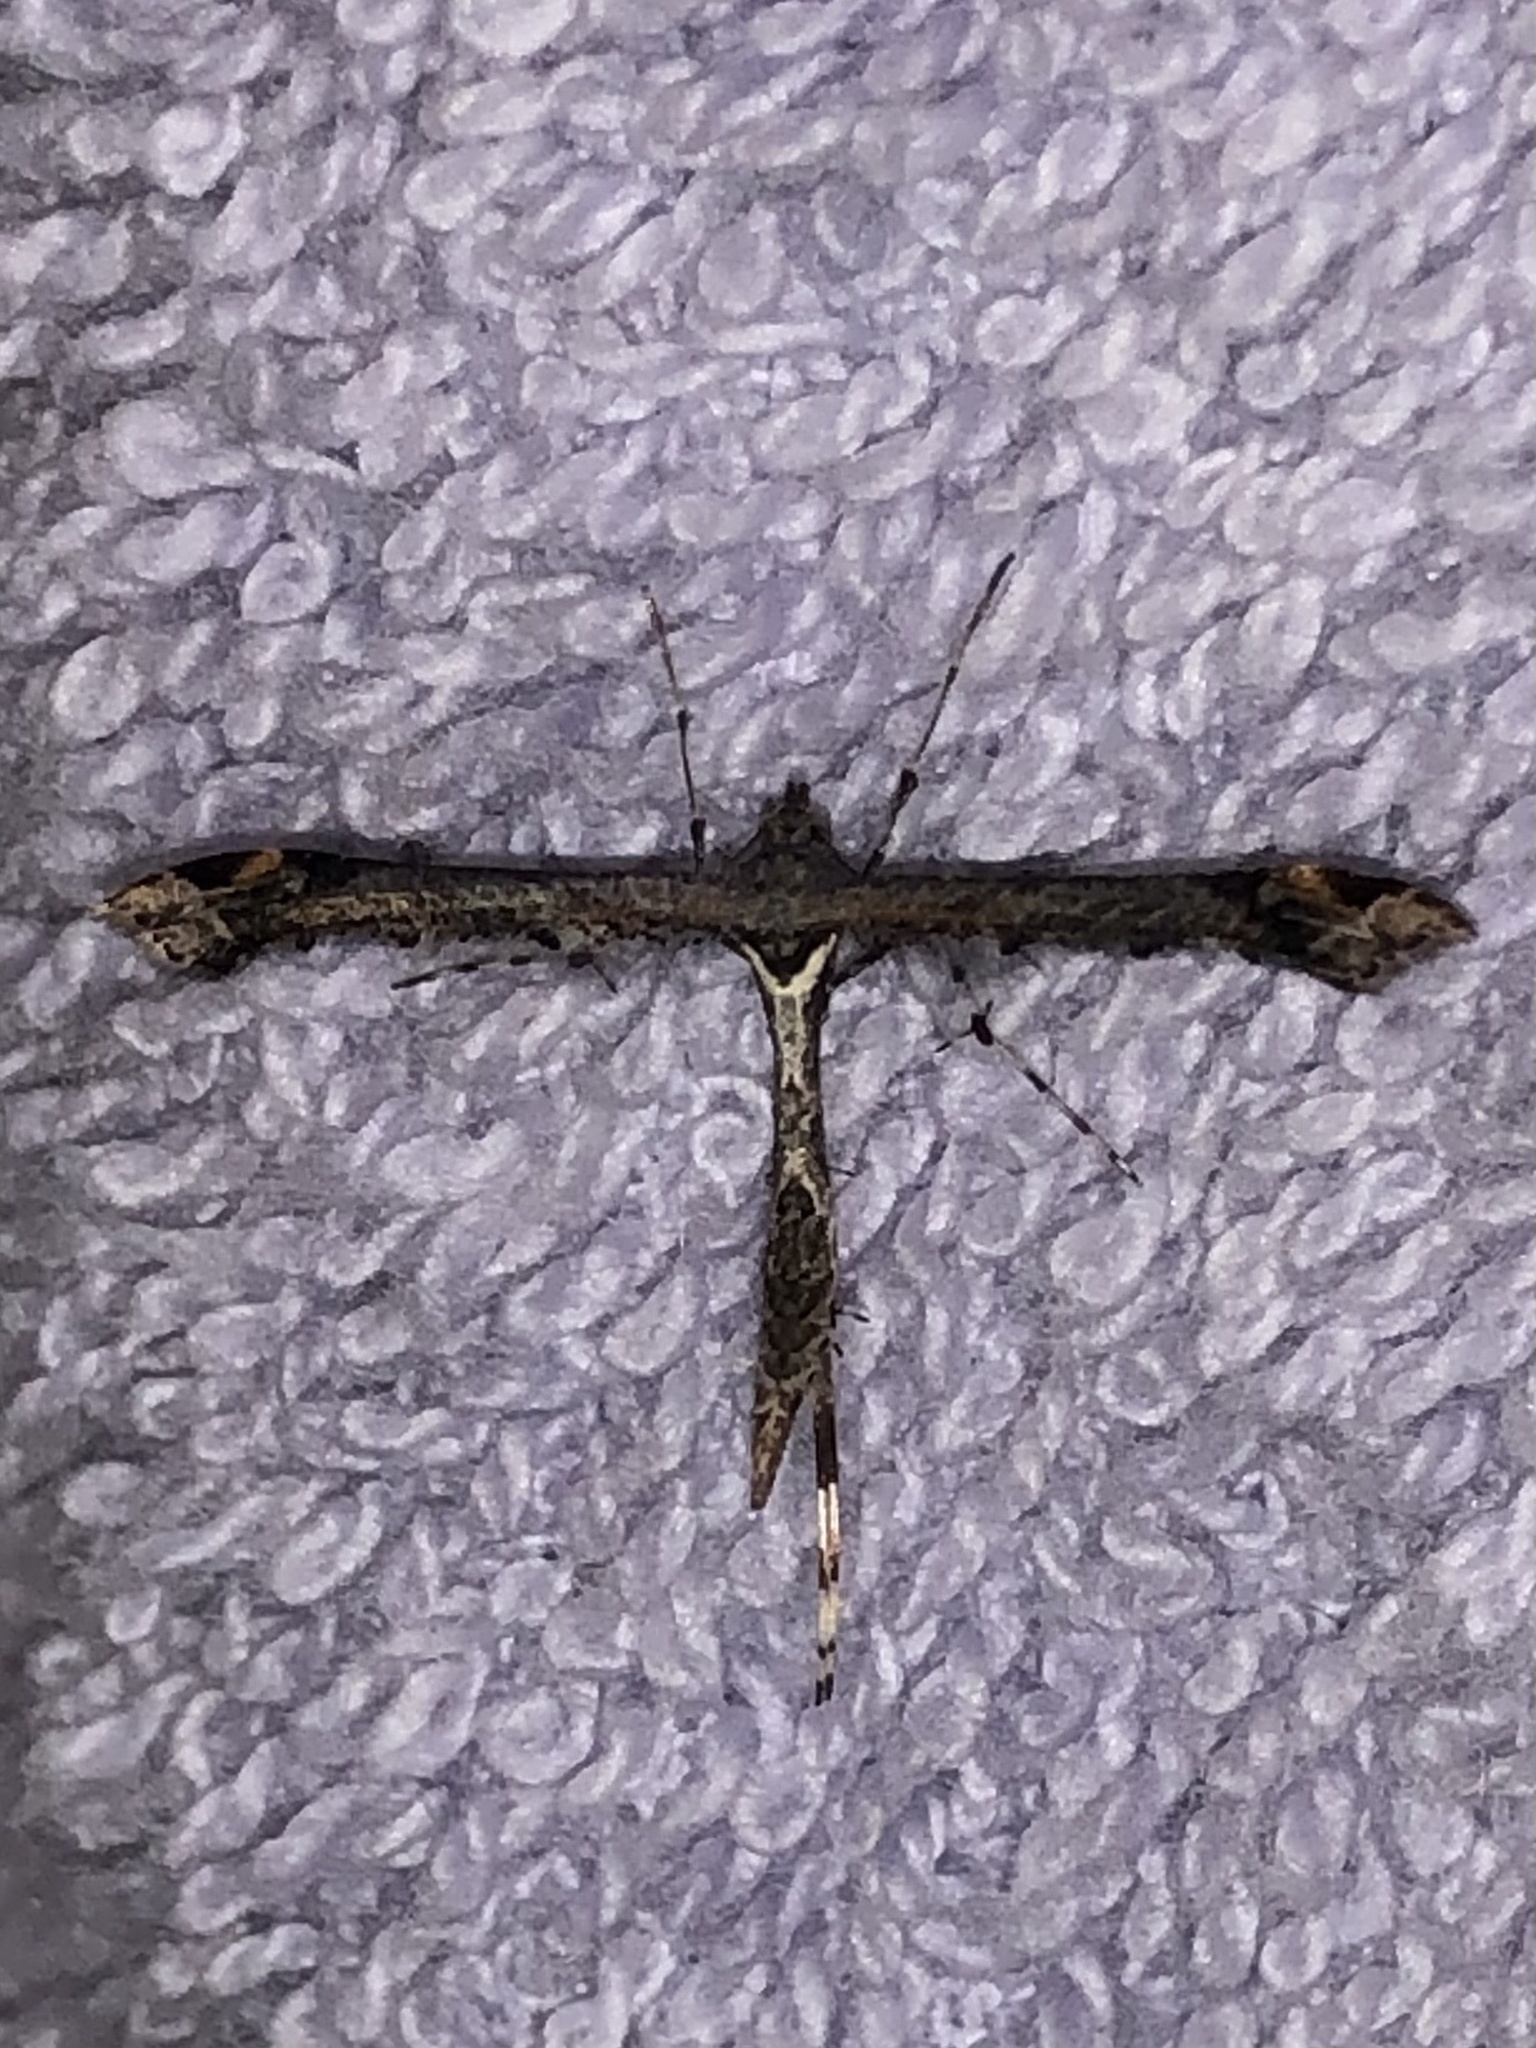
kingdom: Animalia
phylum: Arthropoda
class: Insecta
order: Lepidoptera
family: Pterophoridae
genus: Anstenoptilia
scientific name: Anstenoptilia marmarodactyla
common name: Moth
